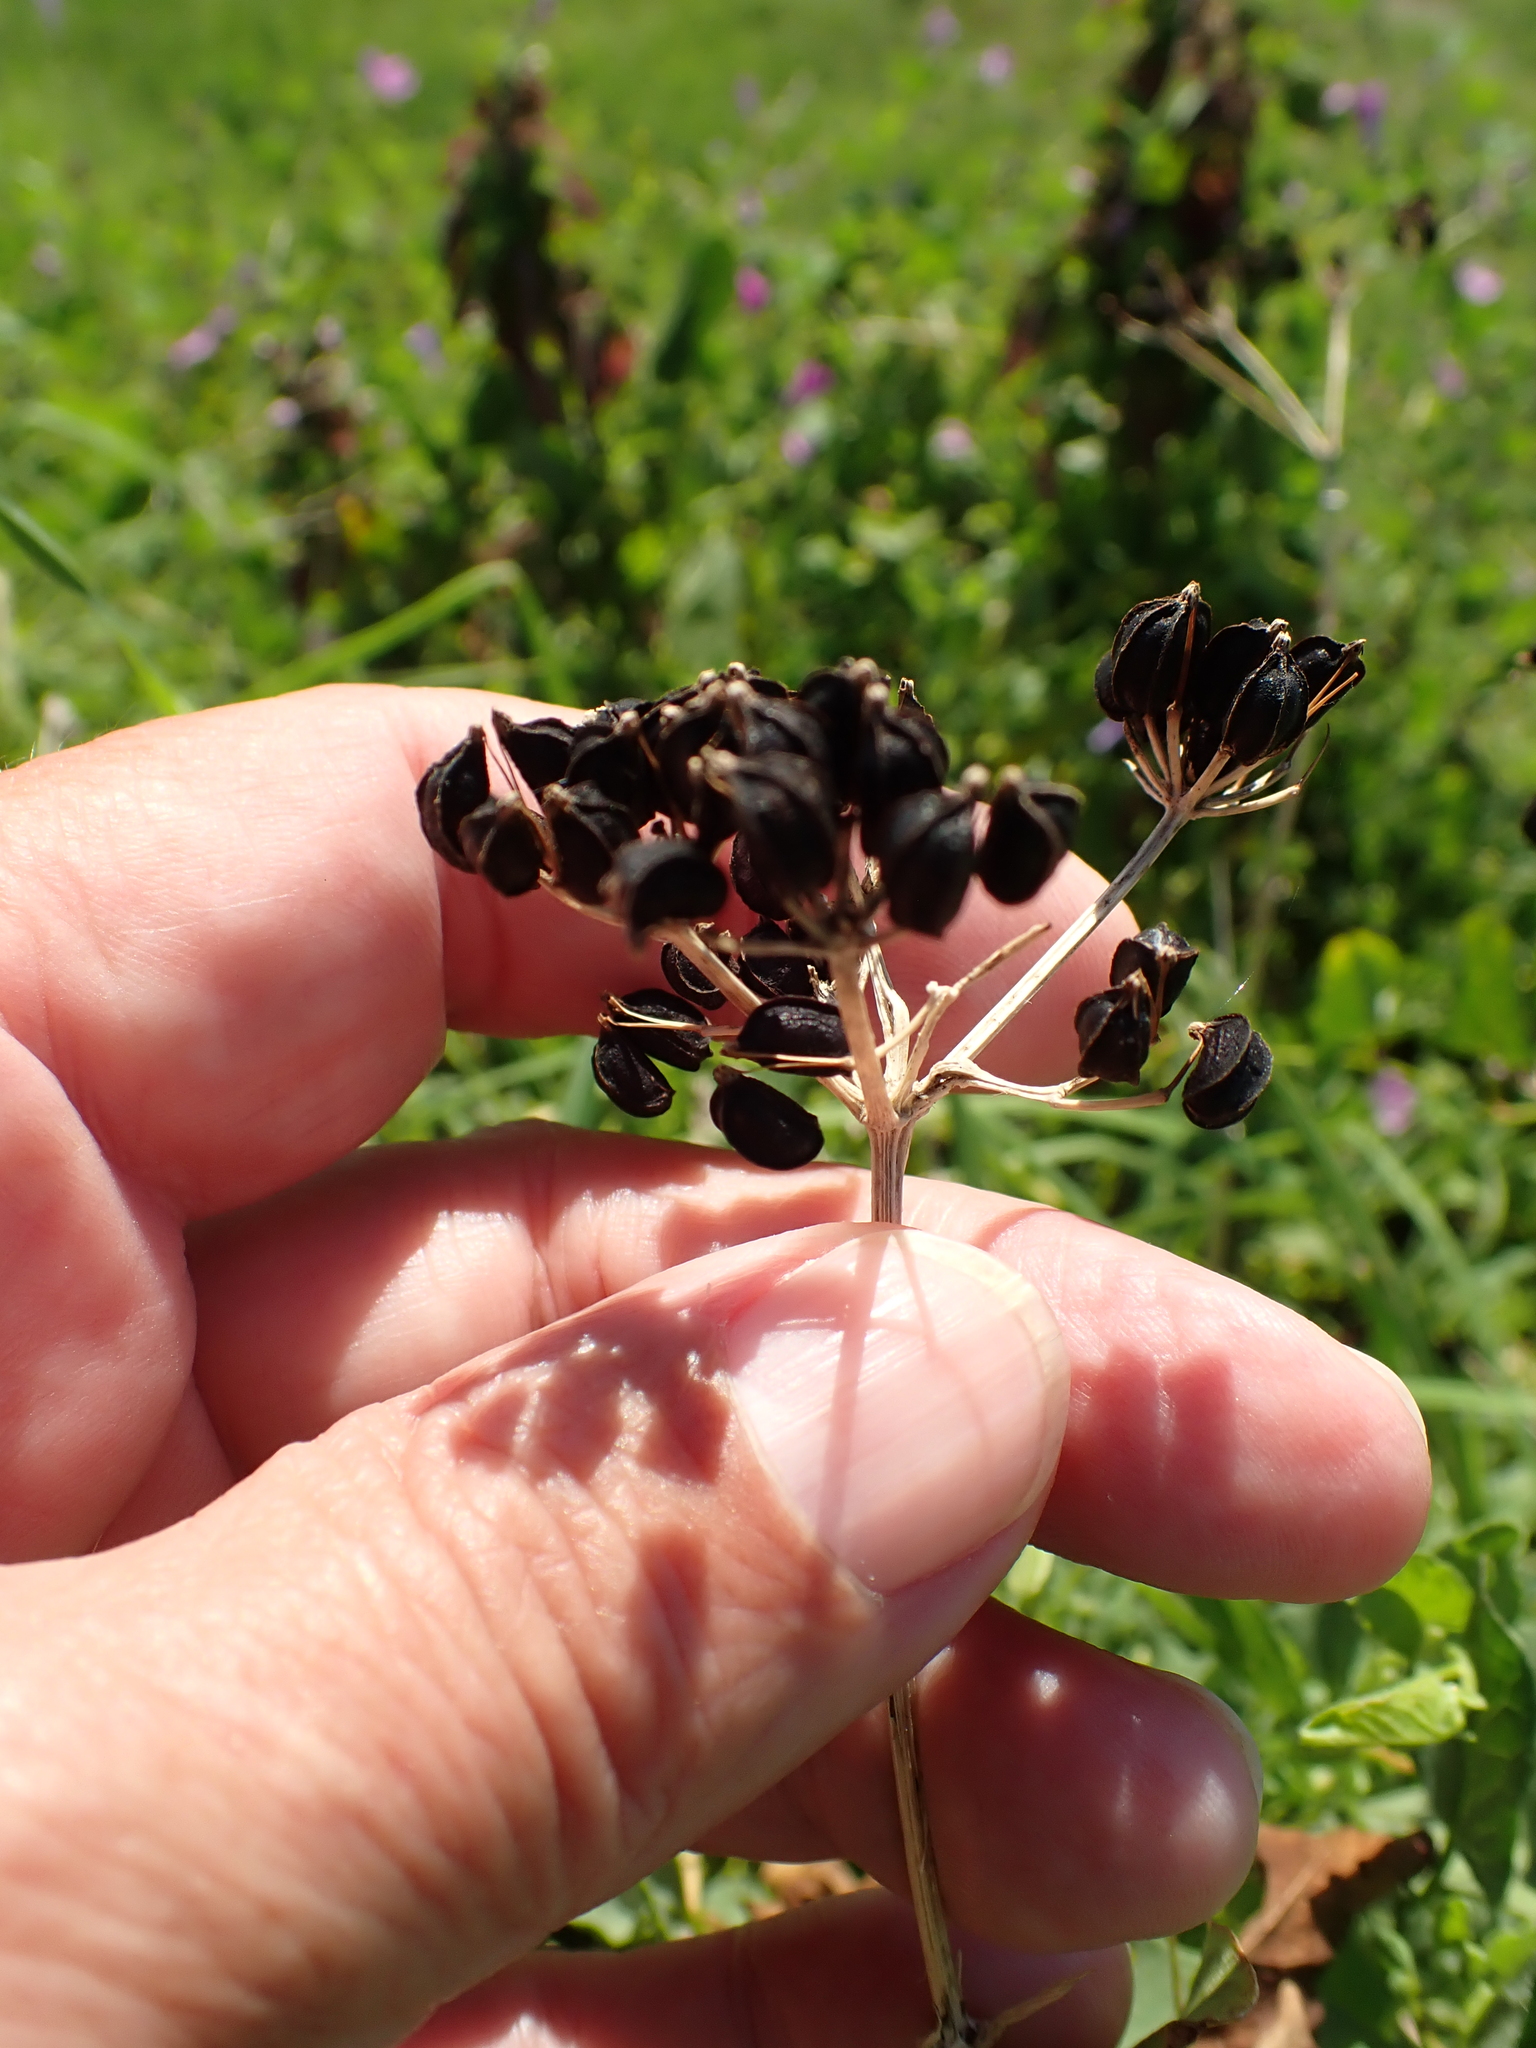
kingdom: Plantae
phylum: Tracheophyta
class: Magnoliopsida
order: Apiales
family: Apiaceae
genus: Smyrnium
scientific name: Smyrnium olusatrum
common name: Alexanders
